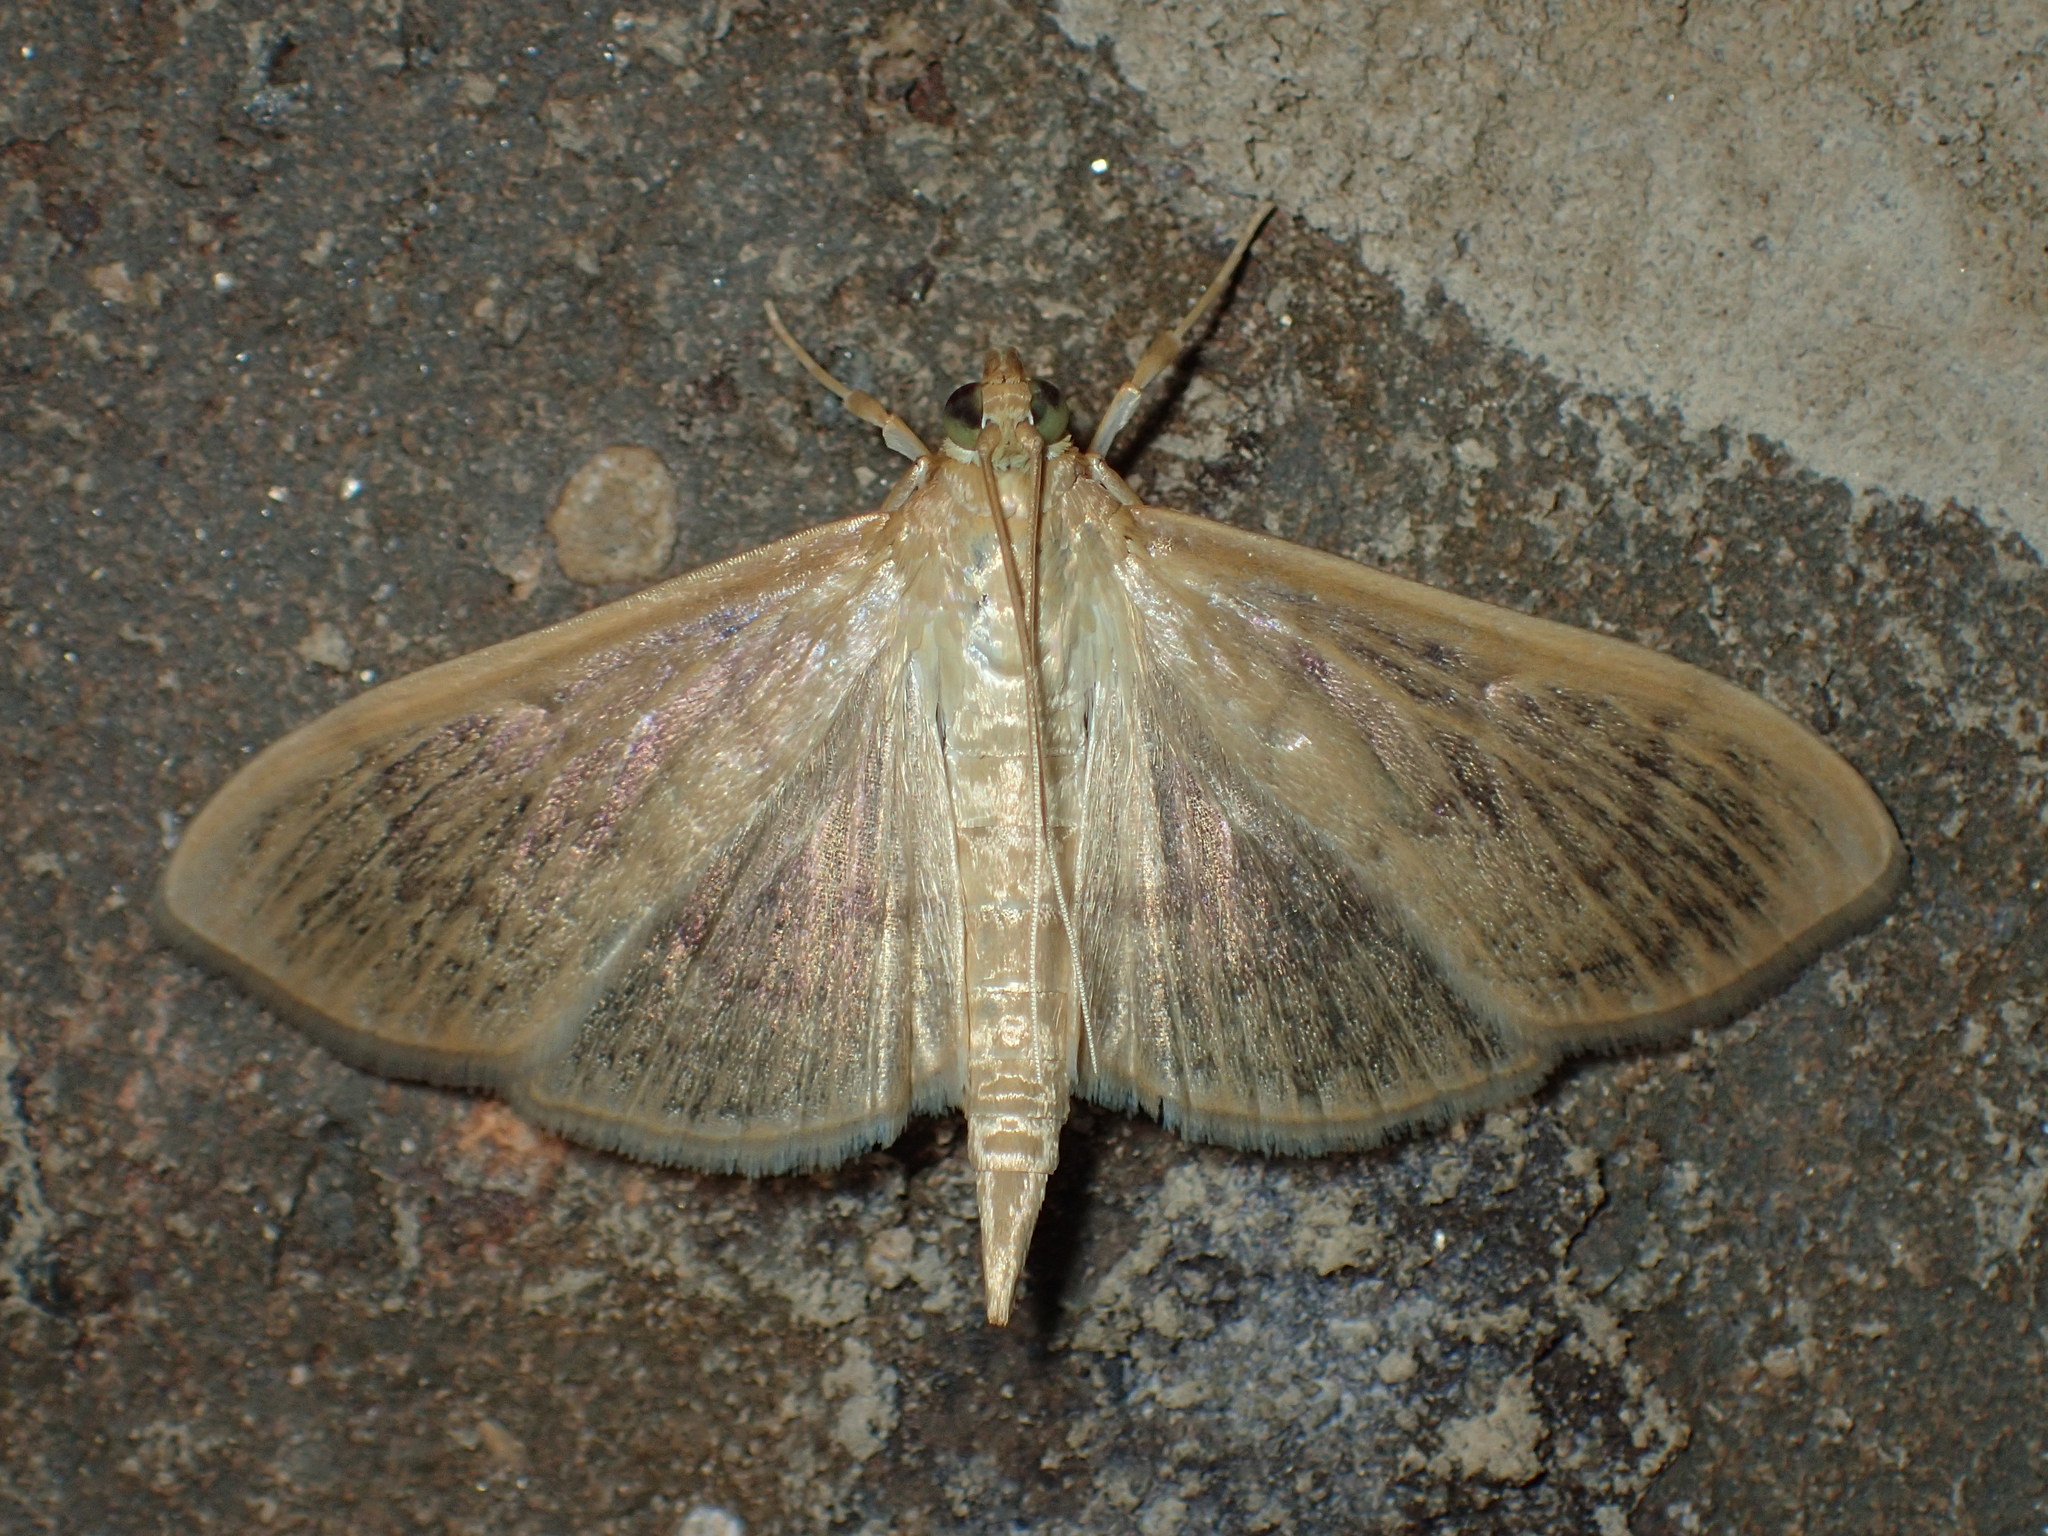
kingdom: Animalia
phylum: Arthropoda
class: Insecta
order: Lepidoptera
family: Crambidae
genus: Pleuroptya
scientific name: Pleuroptya silicalis
